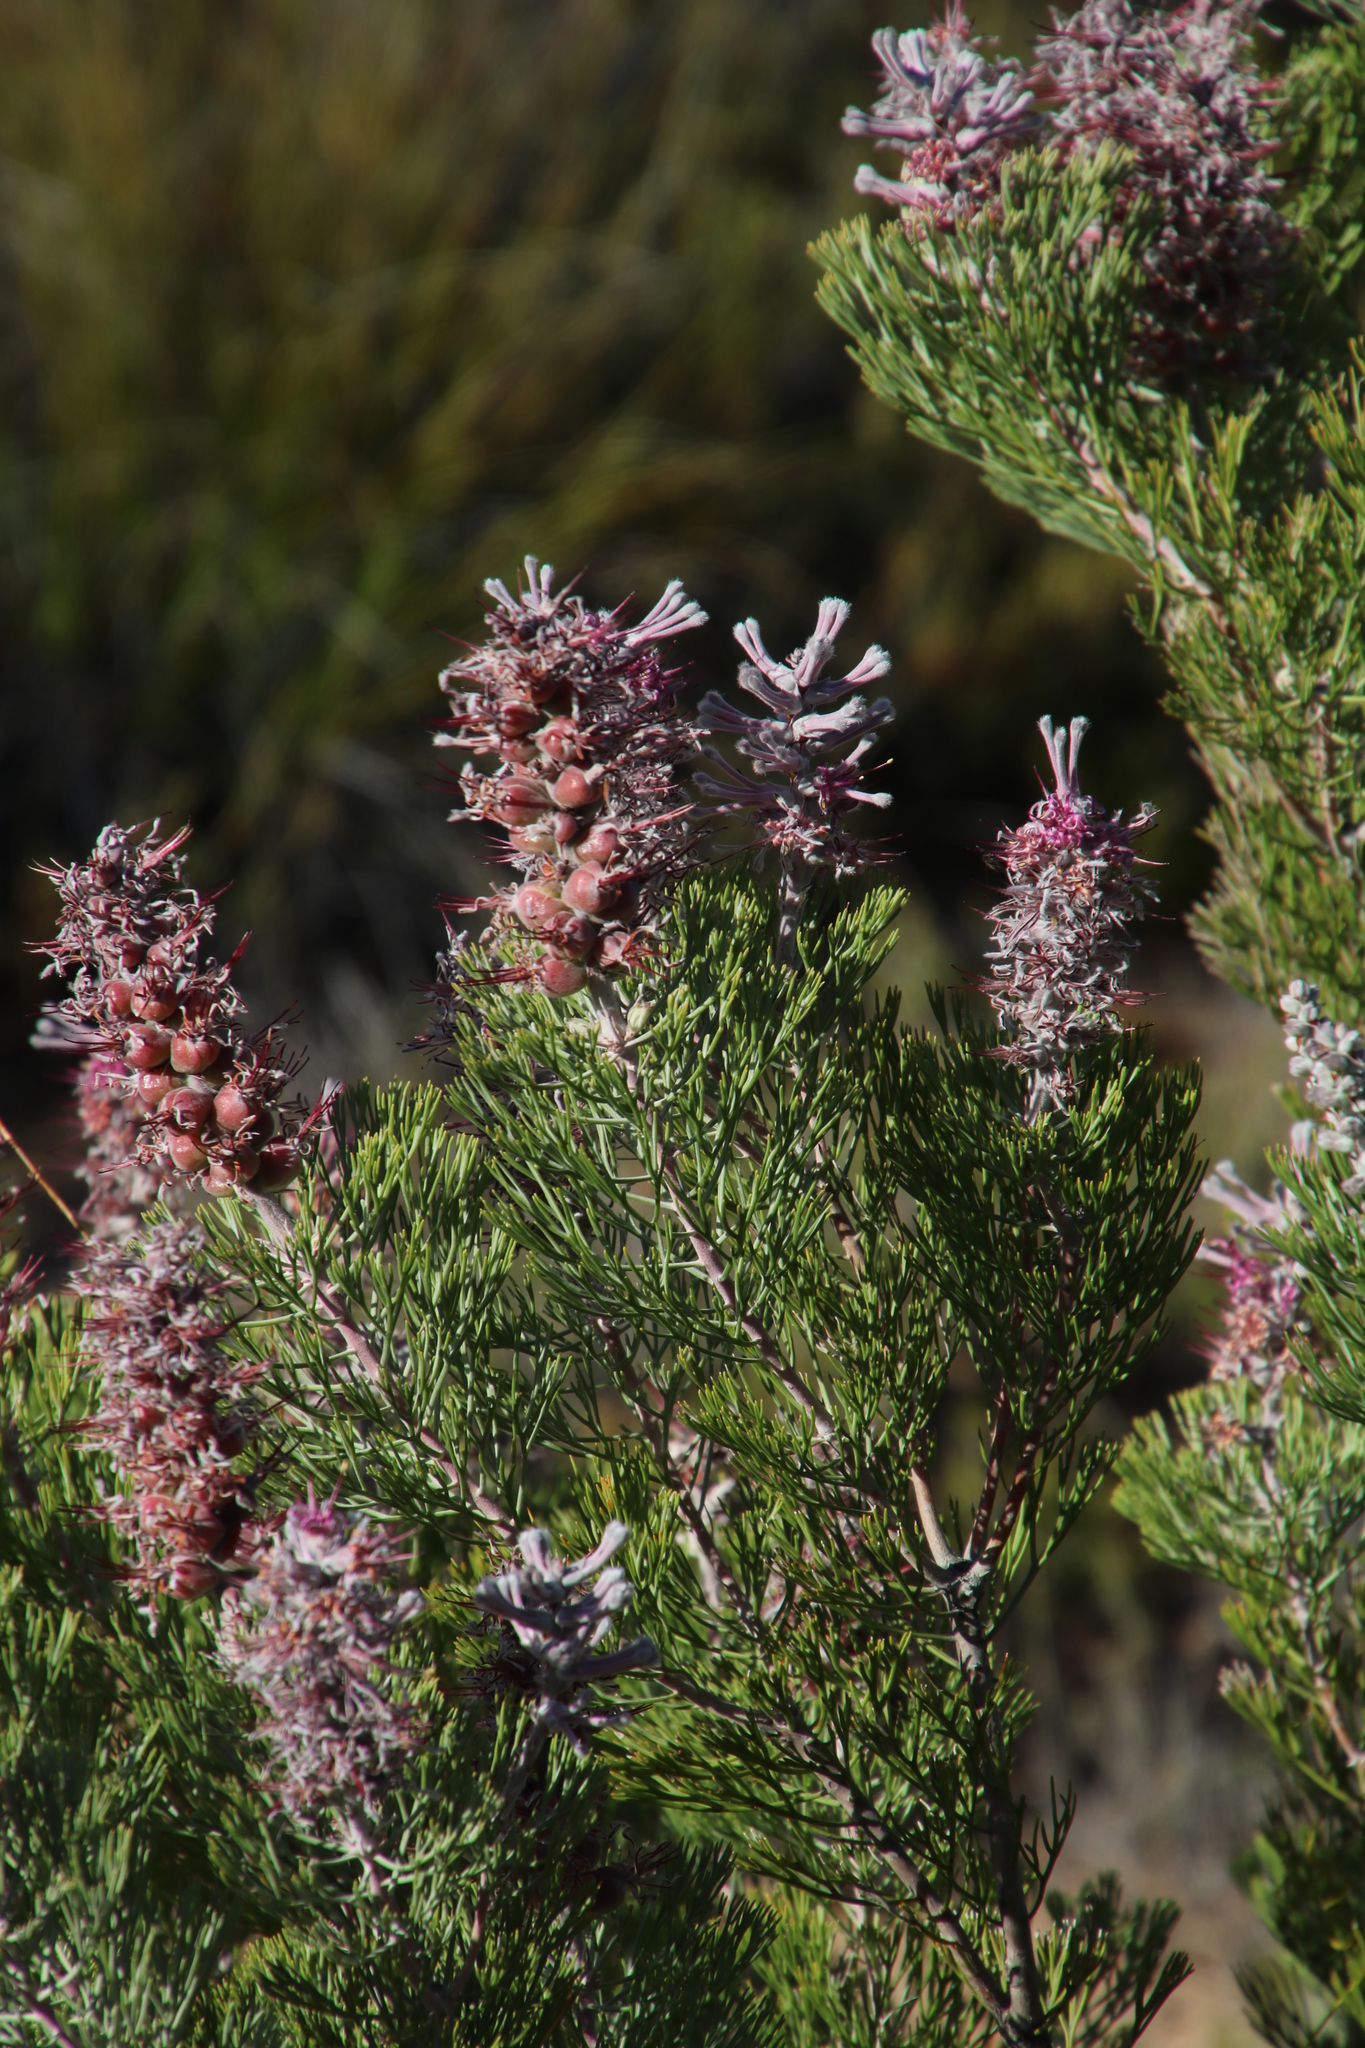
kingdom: Plantae
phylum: Tracheophyta
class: Magnoliopsida
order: Proteales
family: Proteaceae
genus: Paranomus
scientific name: Paranomus bracteolaris
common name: Bokkeveld tree sceptre
